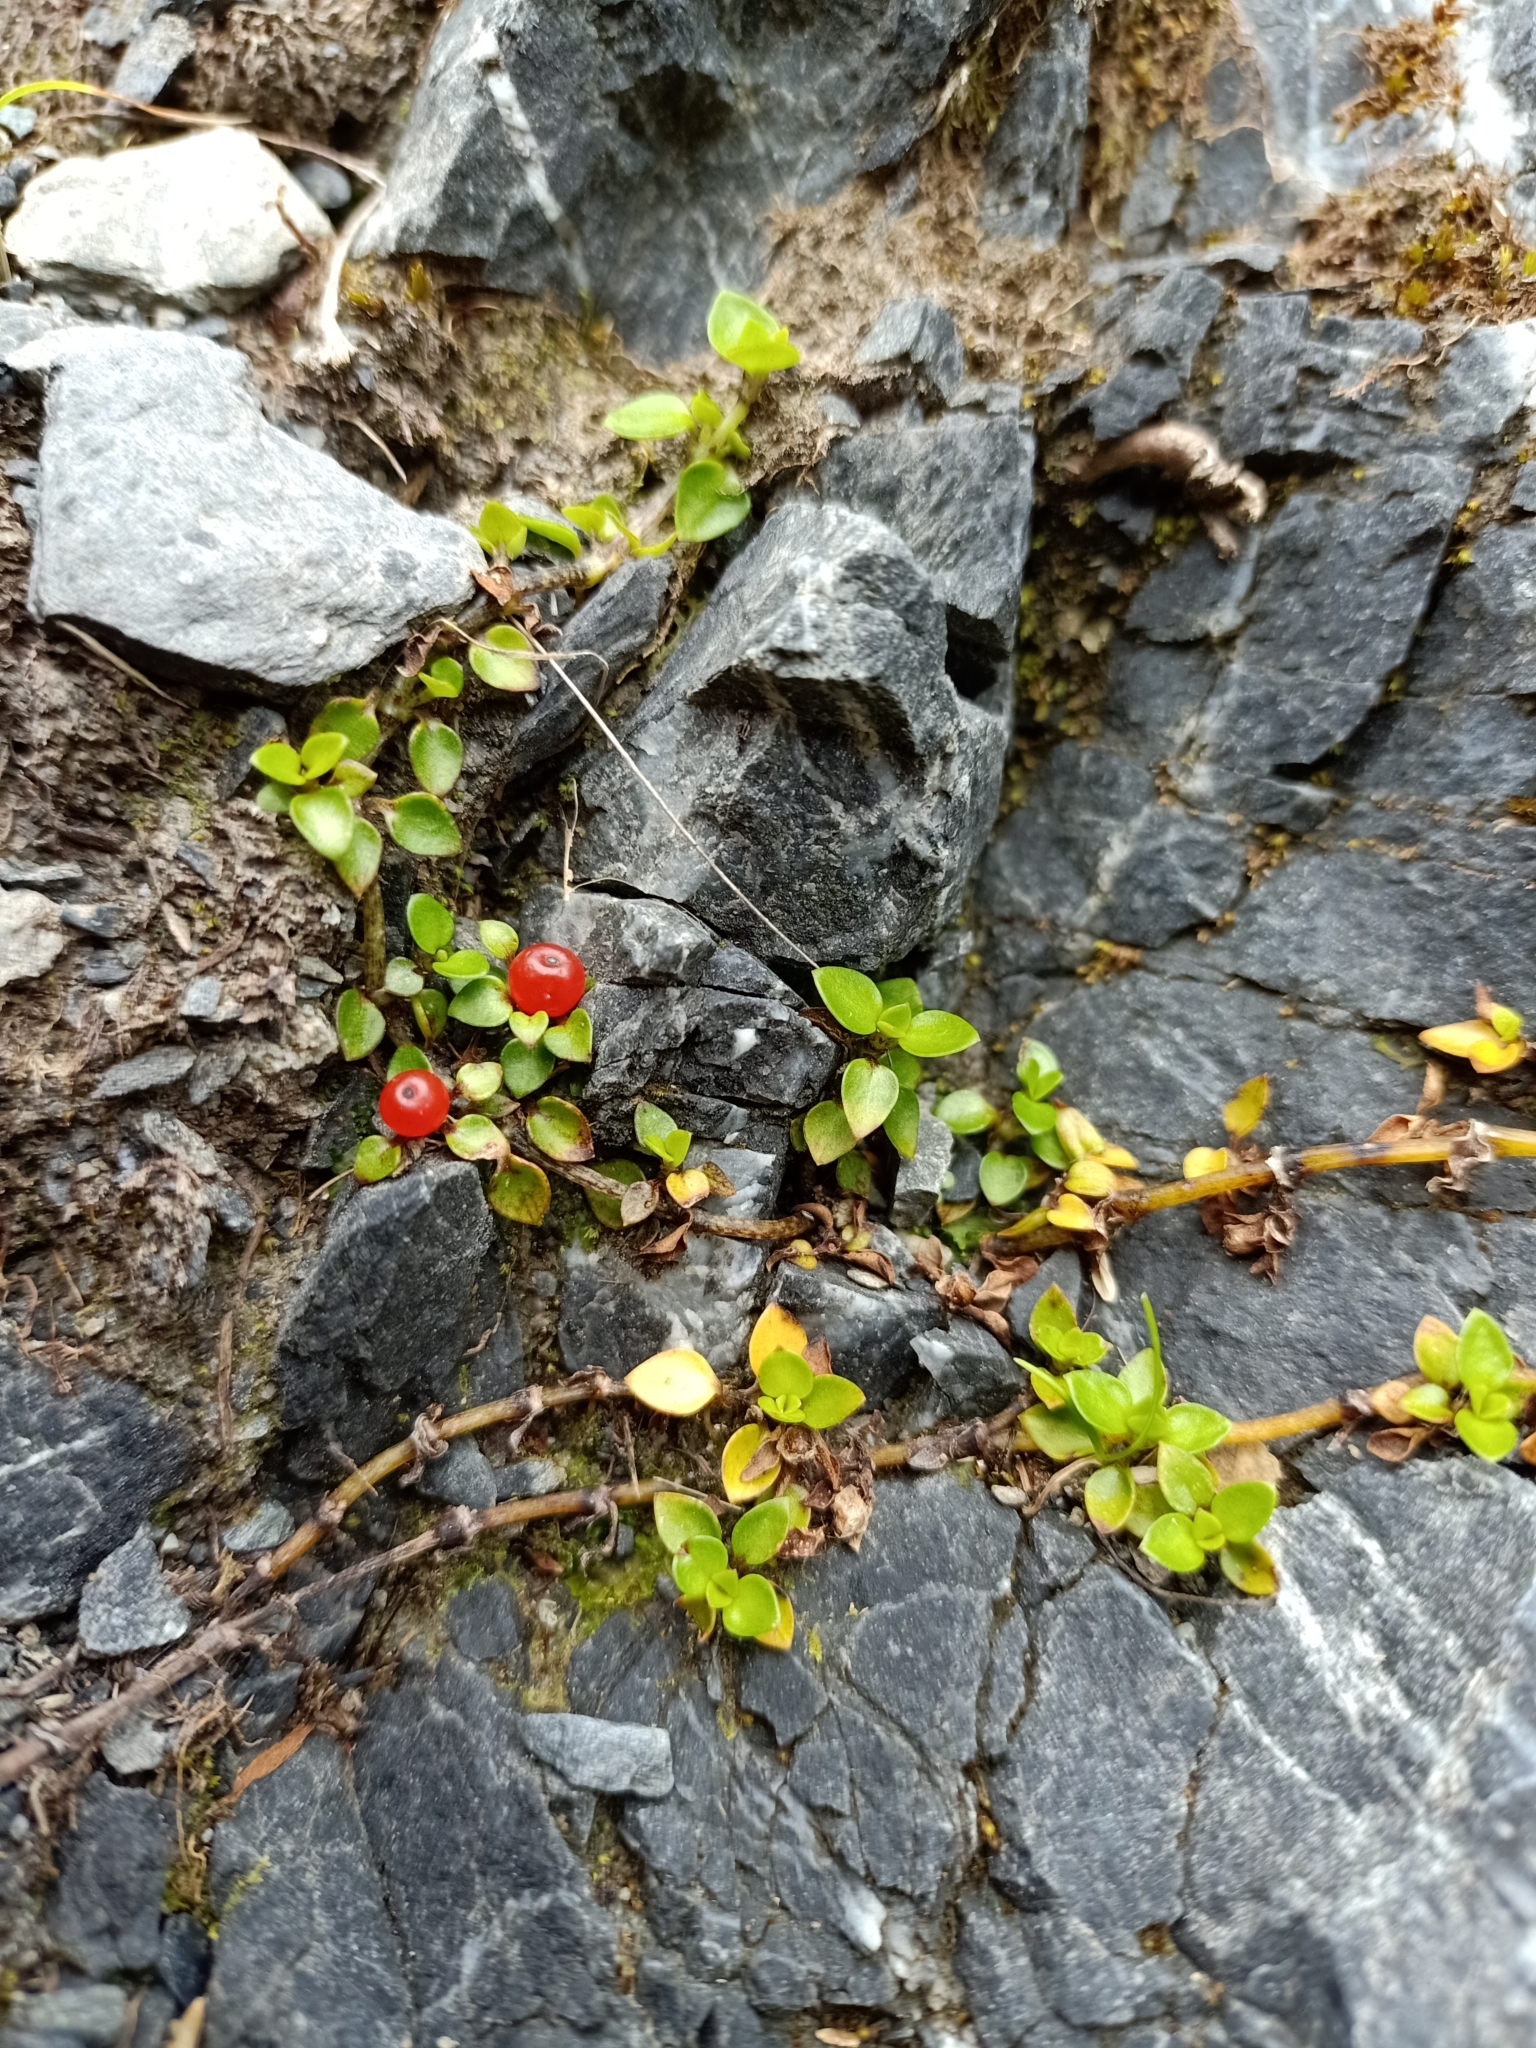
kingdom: Plantae
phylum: Tracheophyta
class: Magnoliopsida
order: Gentianales
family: Rubiaceae
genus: Nertera
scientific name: Nertera granadensis
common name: Beadplant
